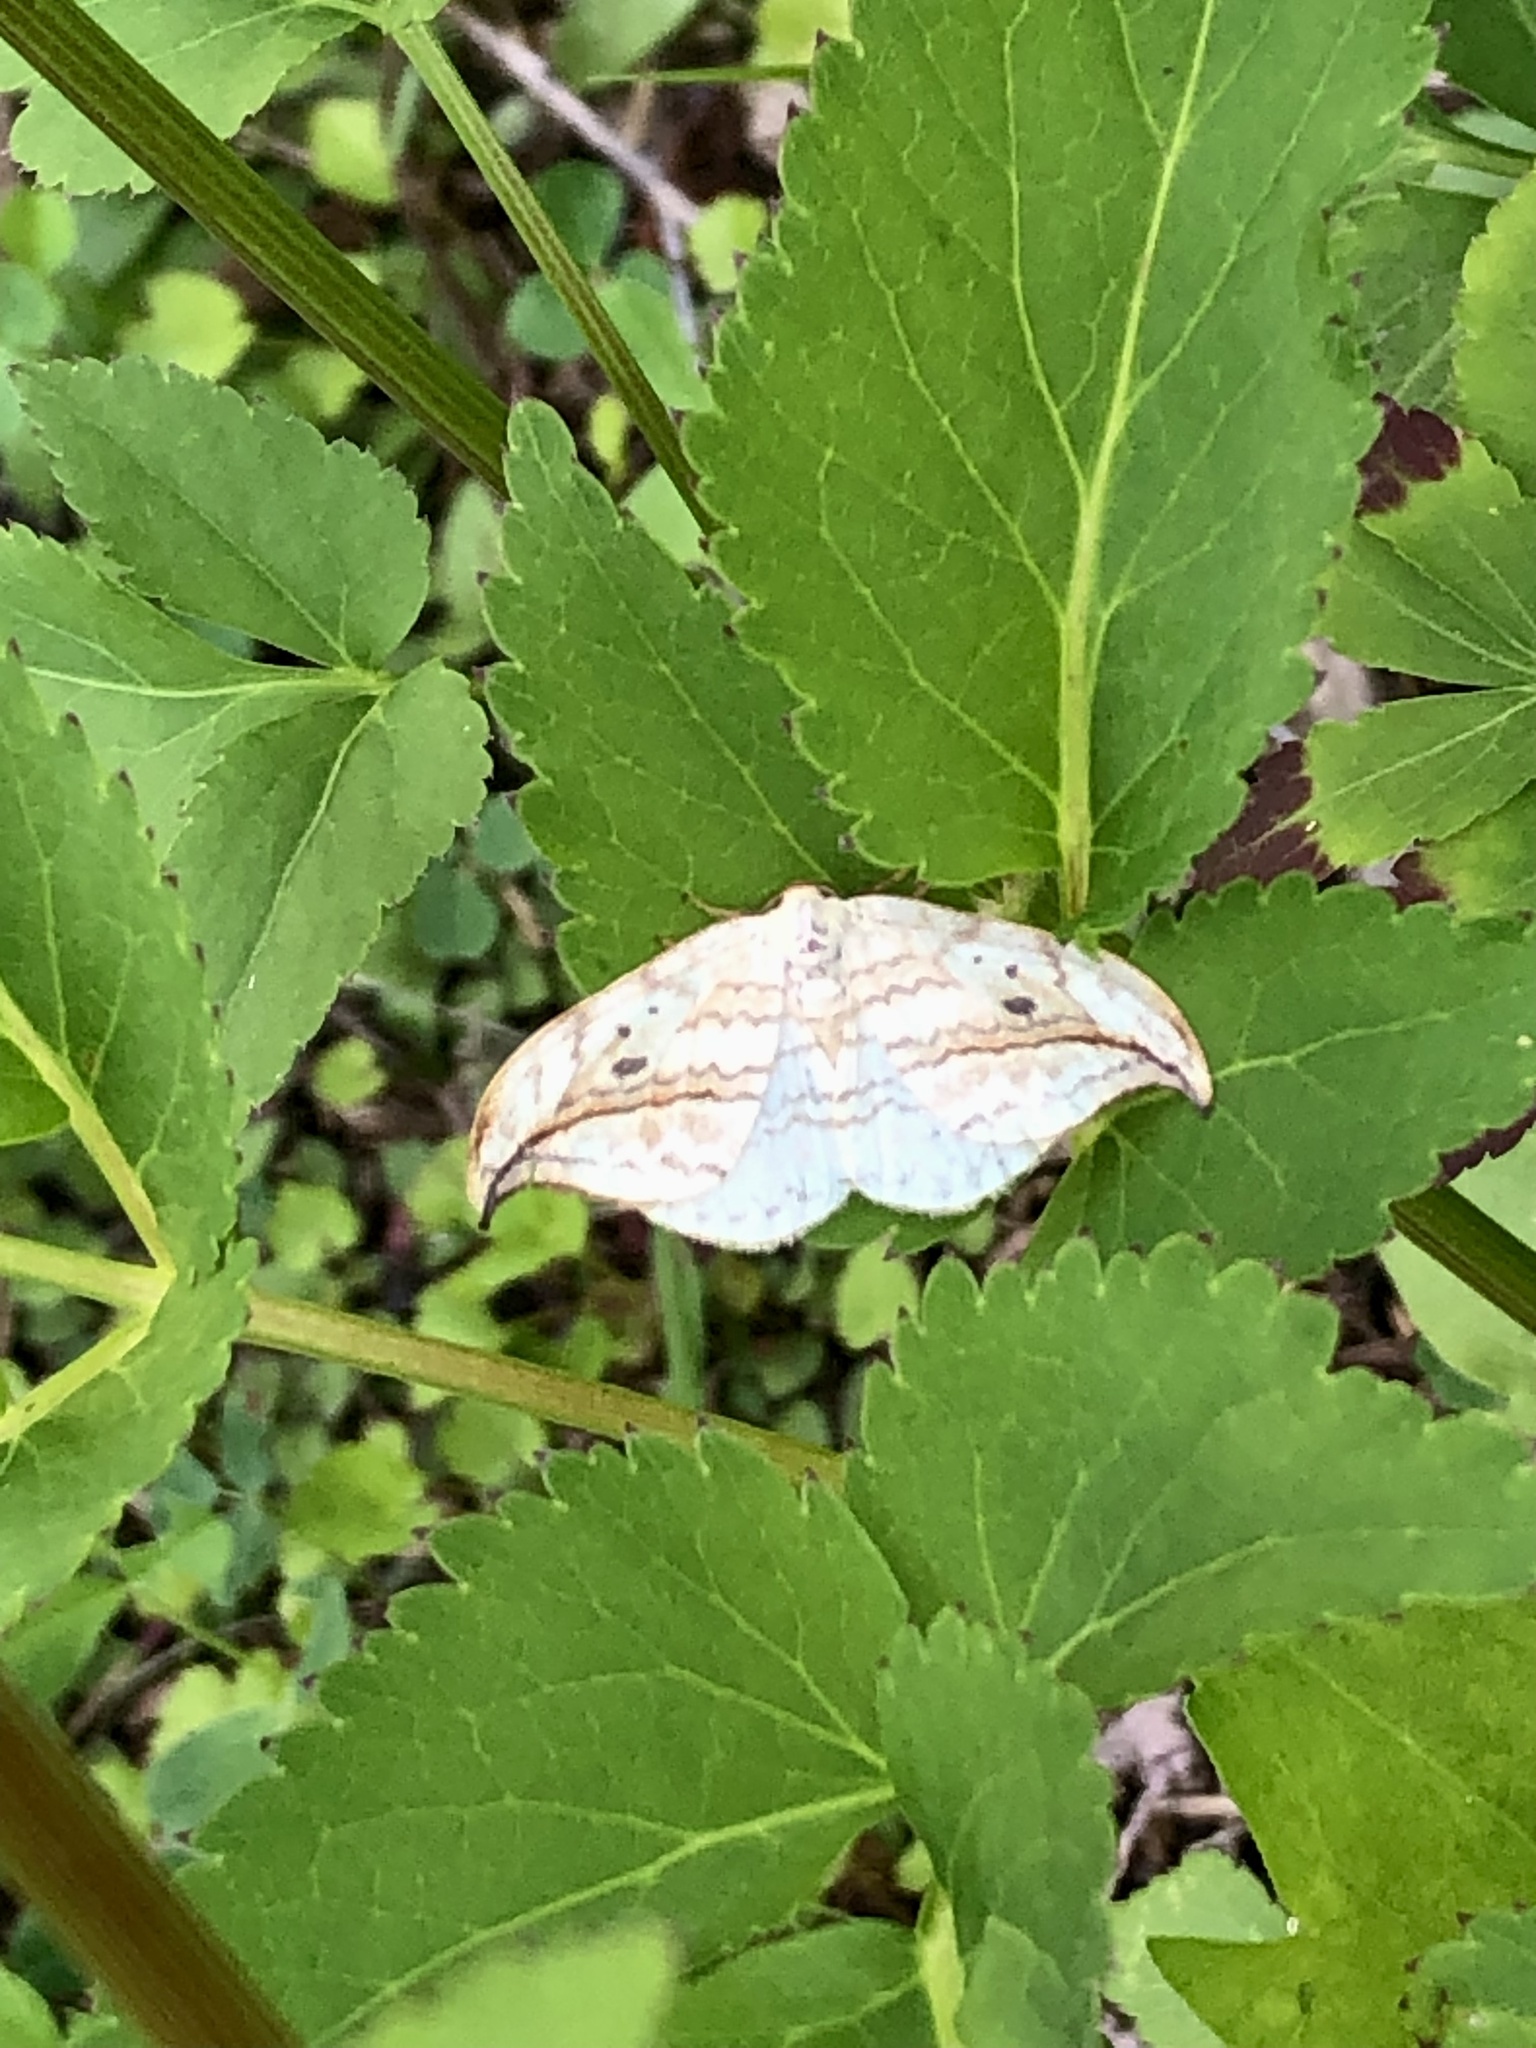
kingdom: Animalia
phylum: Arthropoda
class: Insecta
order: Lepidoptera
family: Drepanidae
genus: Drepana
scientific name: Drepana arcuata
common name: Arched hooktip moth
